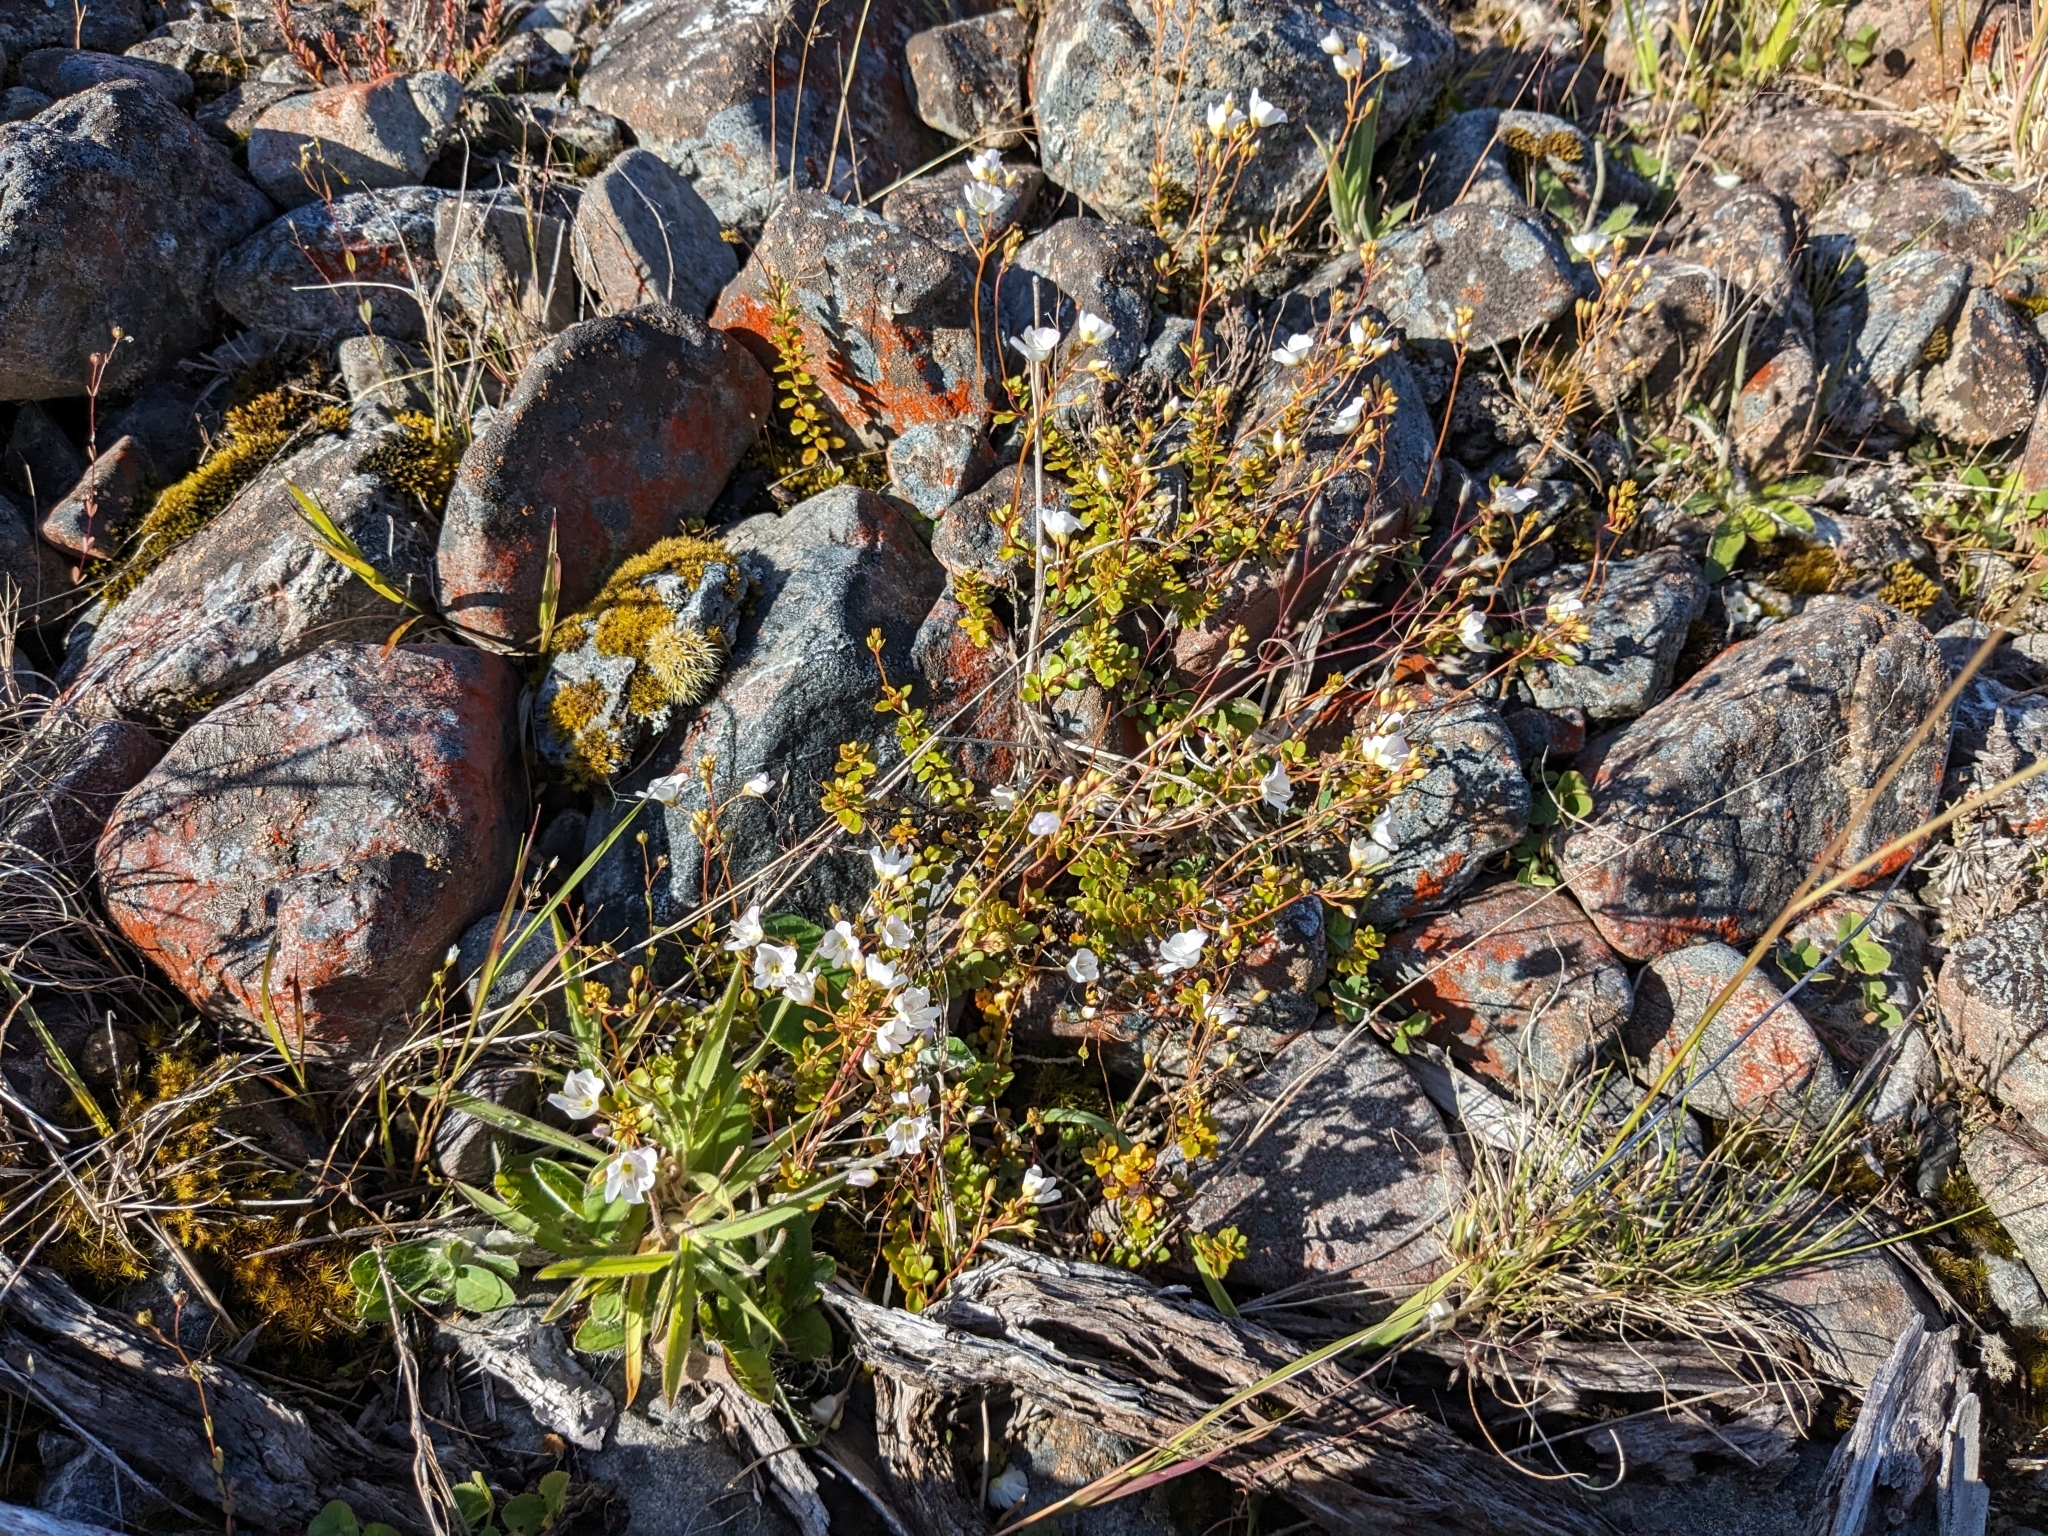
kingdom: Plantae
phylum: Tracheophyta
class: Magnoliopsida
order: Lamiales
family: Plantaginaceae
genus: Veronica
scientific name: Veronica lyallii
